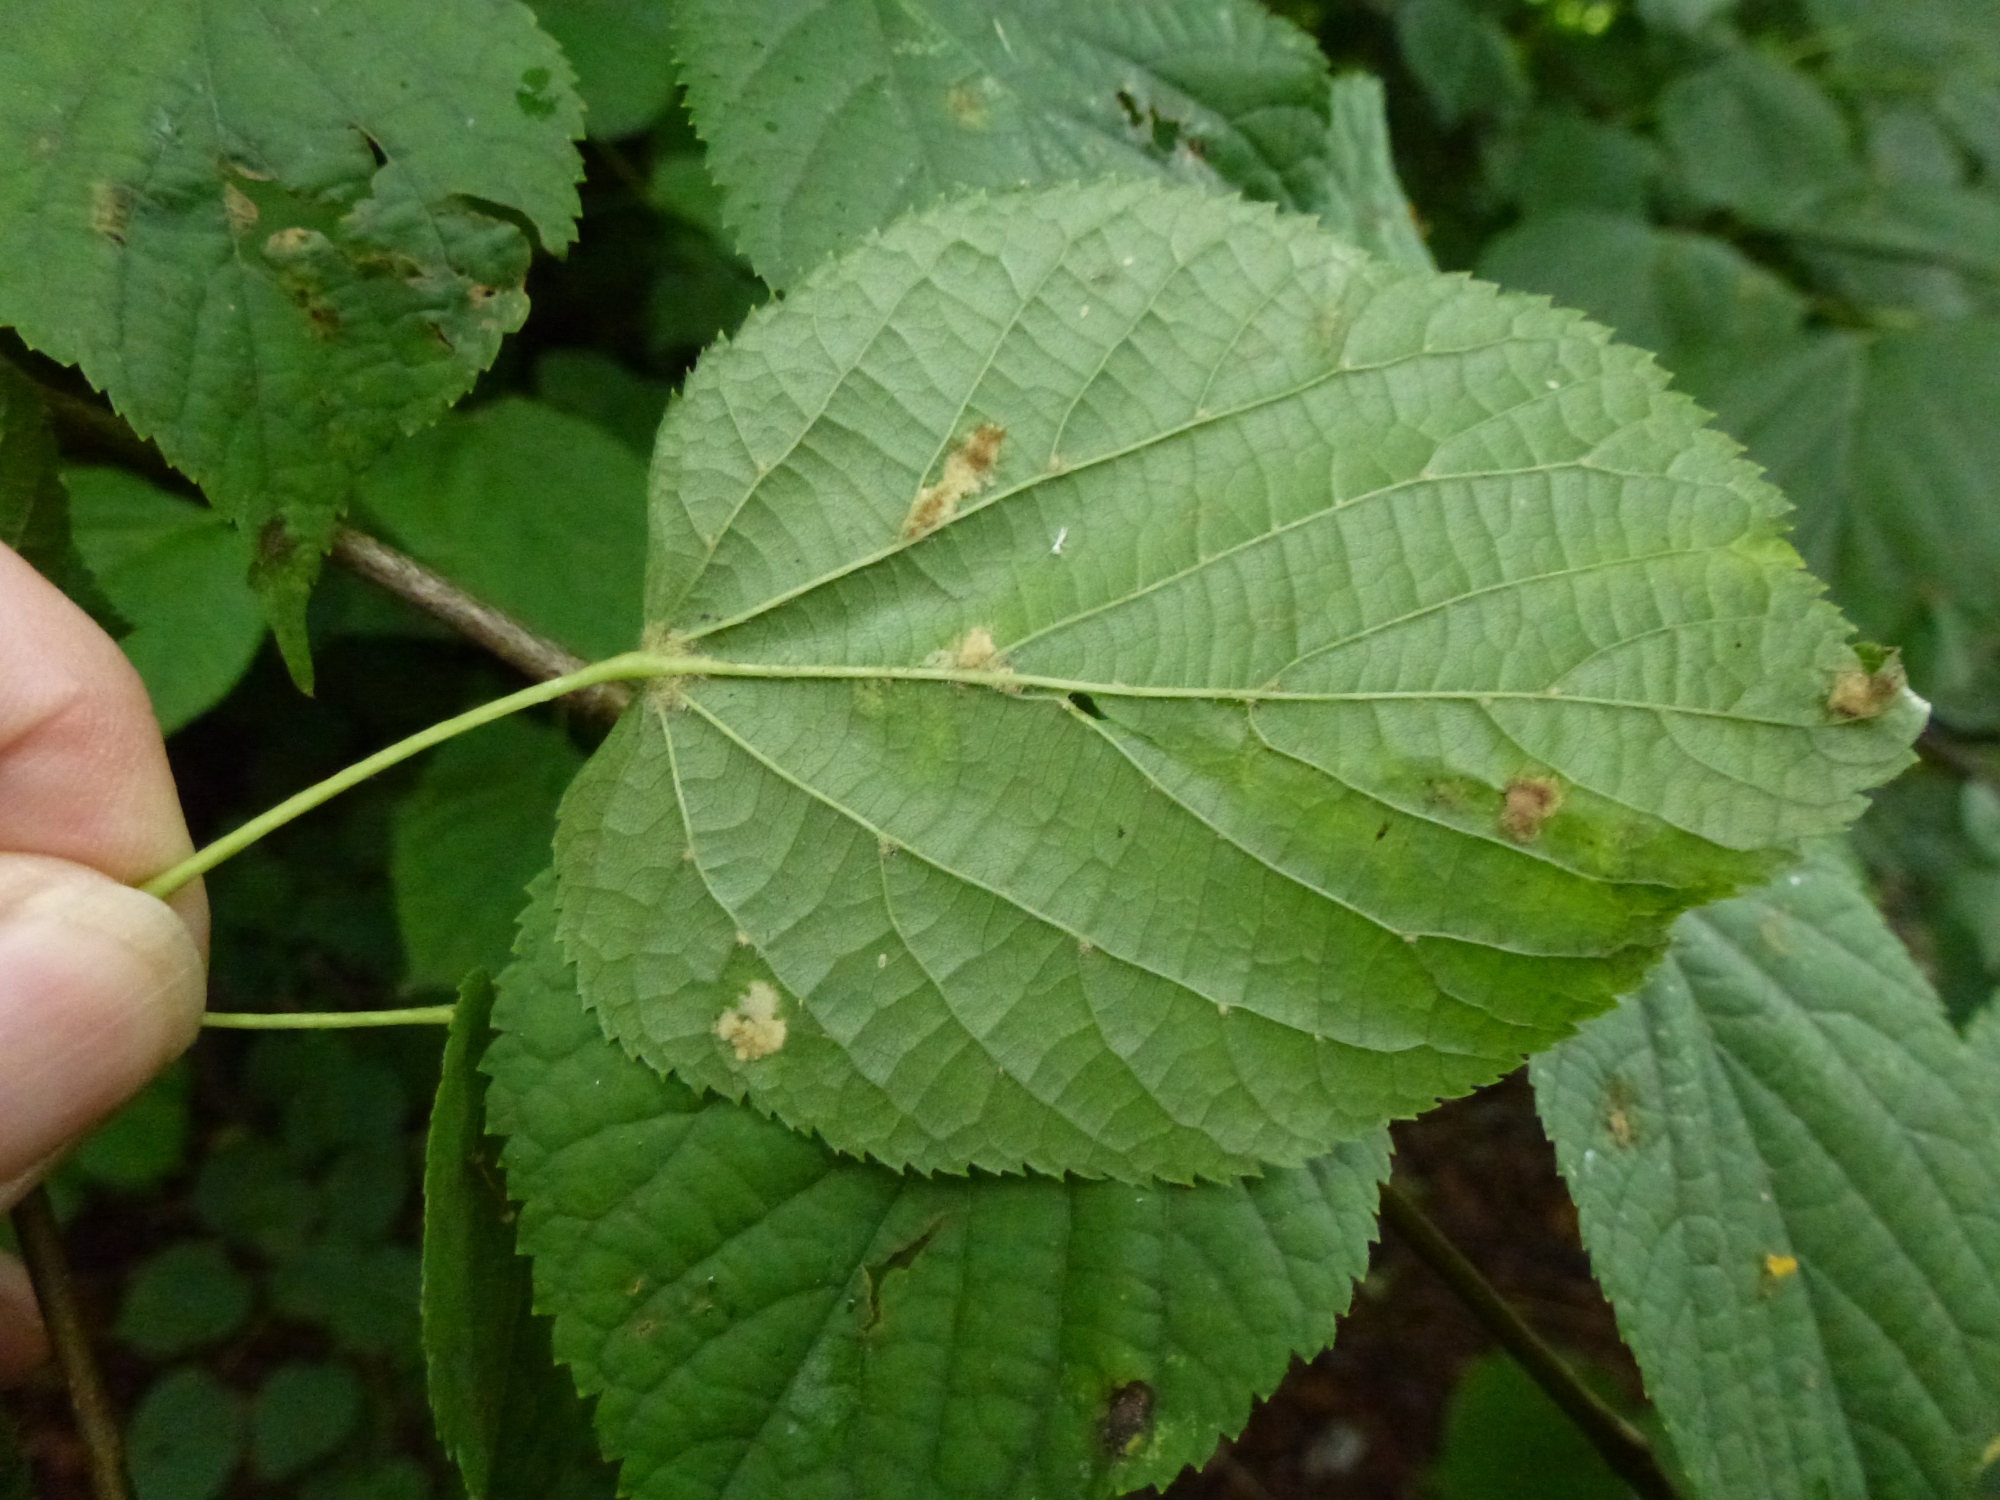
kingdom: Animalia
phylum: Arthropoda
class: Arachnida
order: Trombidiformes
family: Eriophyidae
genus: Eriophyes
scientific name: Eriophyes leiosoma
